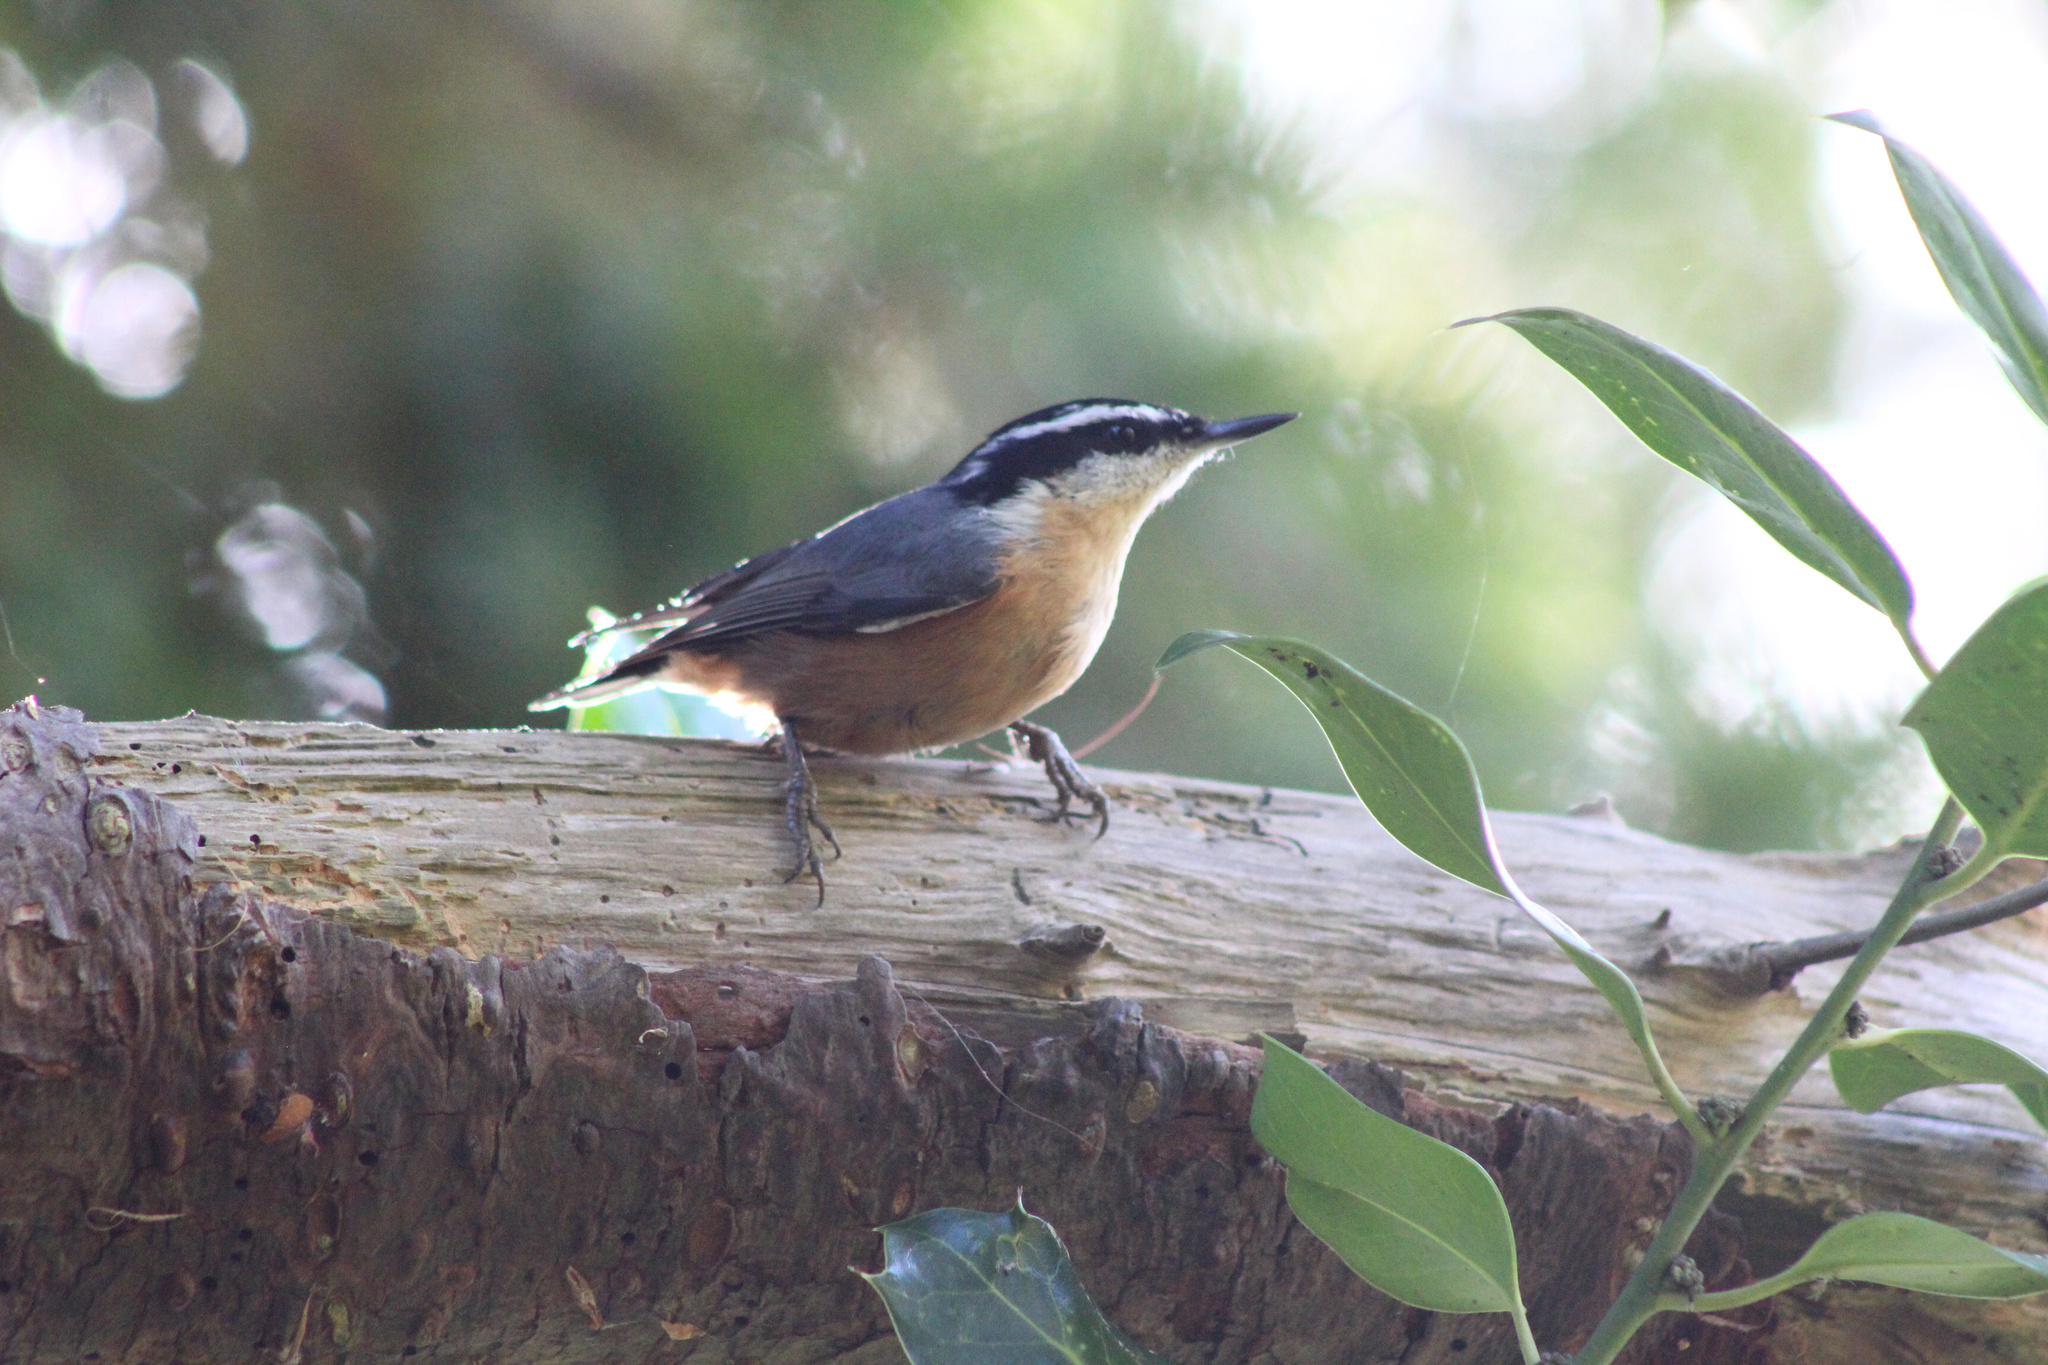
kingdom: Animalia
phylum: Chordata
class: Aves
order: Passeriformes
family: Sittidae
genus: Sitta
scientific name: Sitta canadensis
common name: Red-breasted nuthatch
